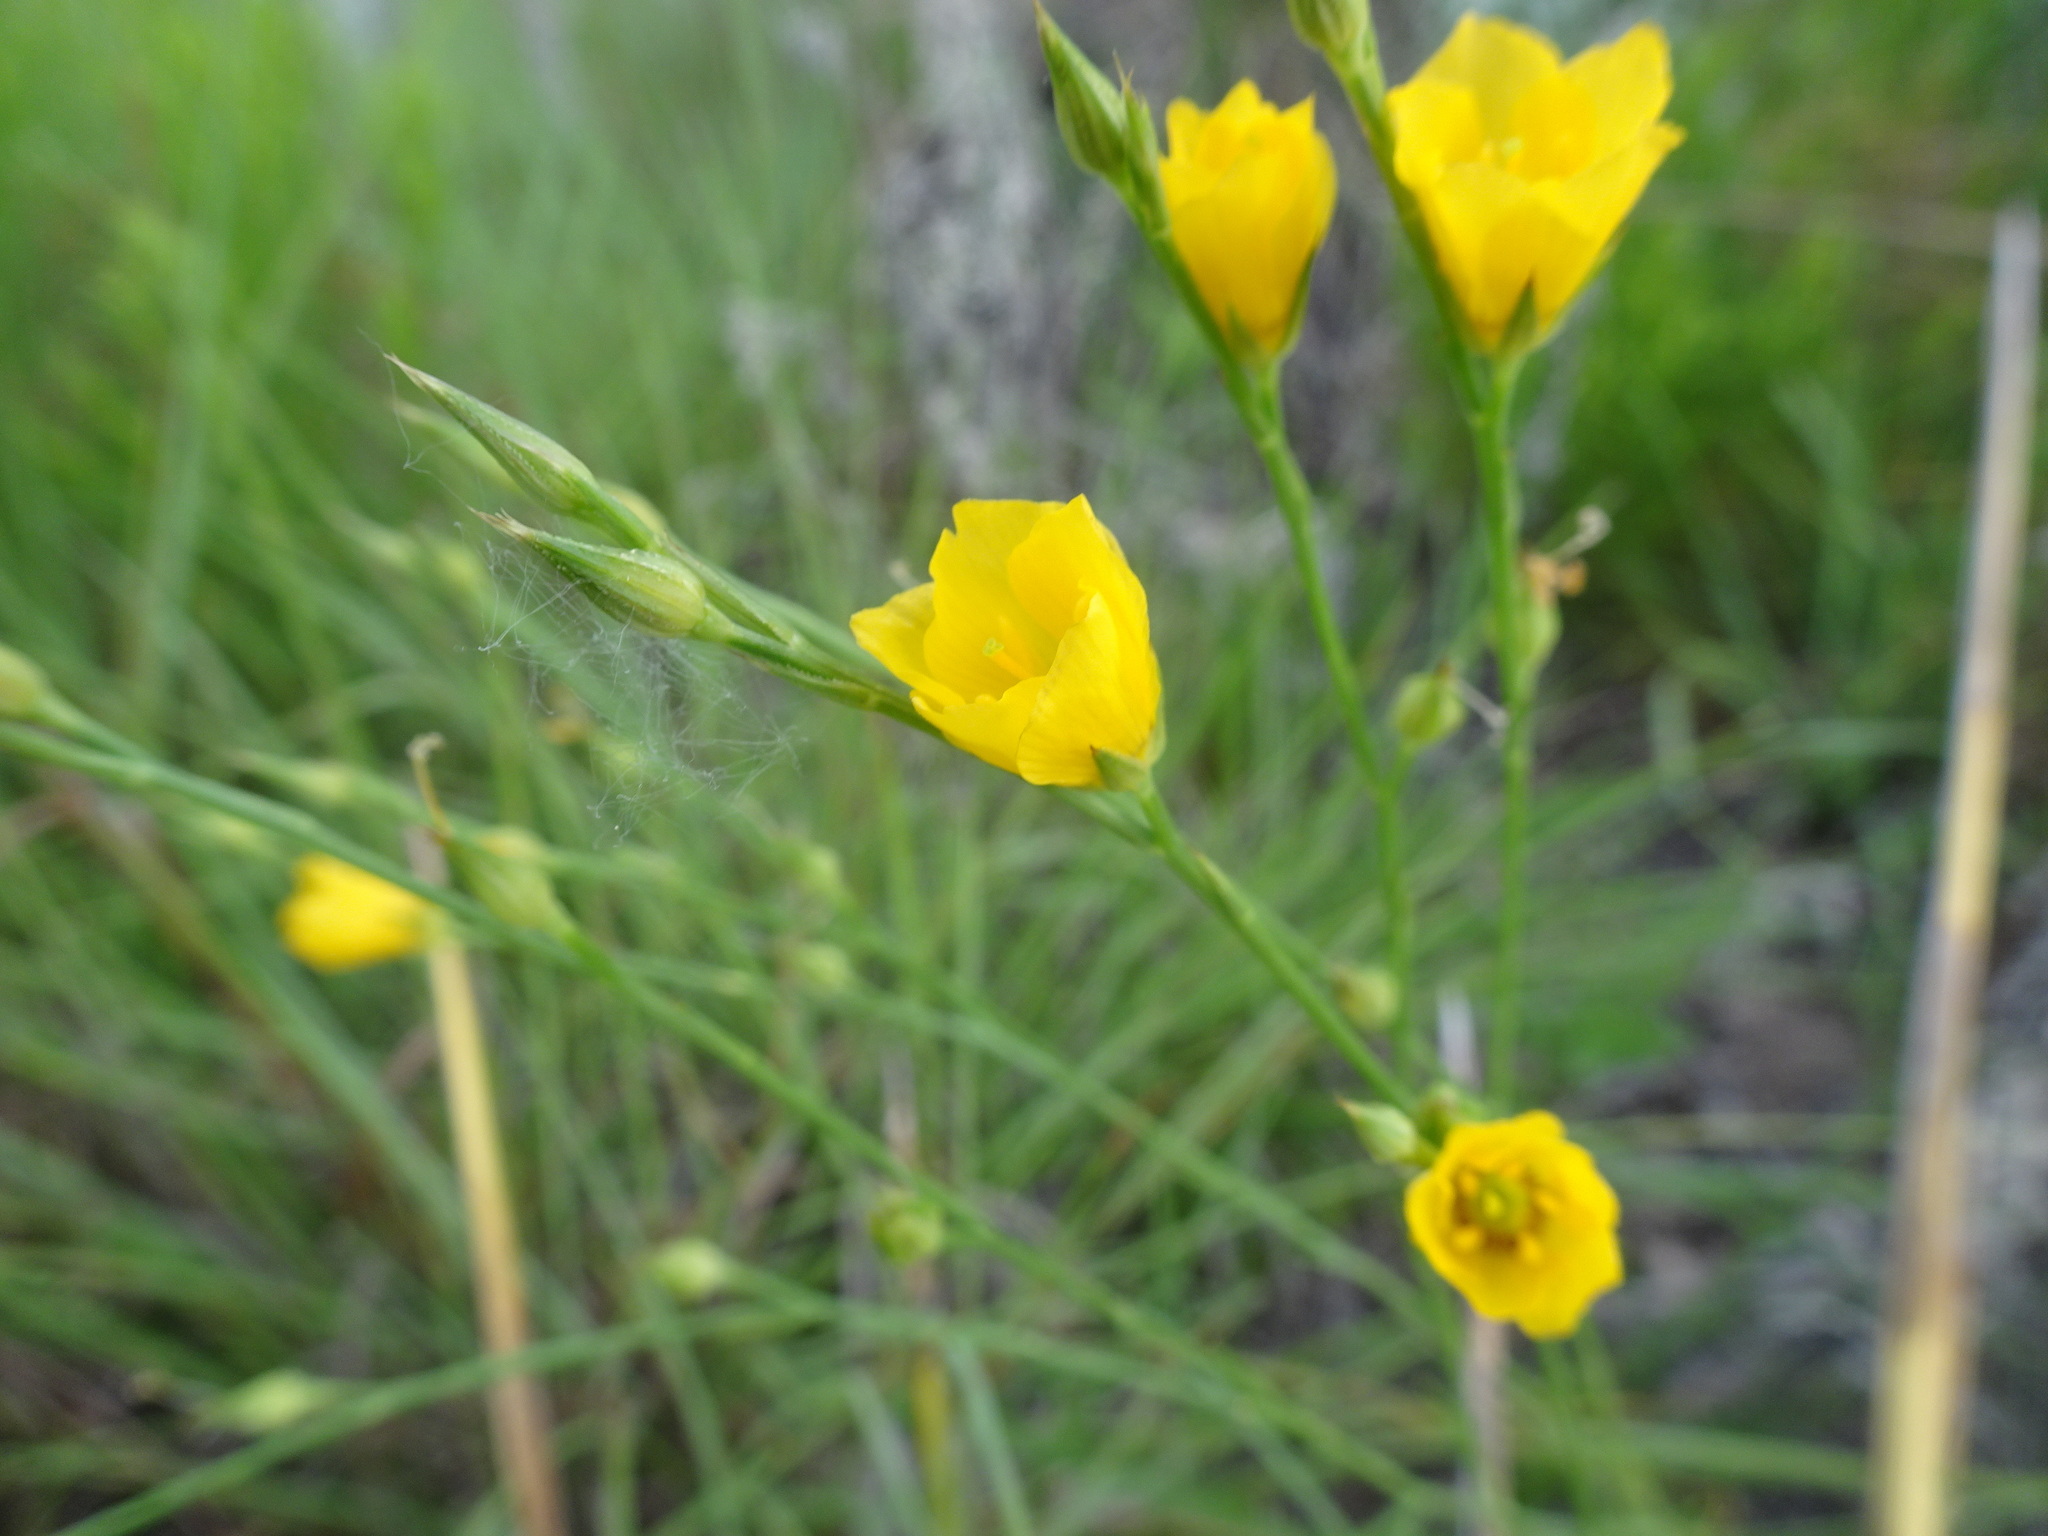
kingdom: Plantae
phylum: Tracheophyta
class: Magnoliopsida
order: Malpighiales
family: Linaceae
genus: Linum
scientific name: Linum rigidum
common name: Stiff-stem flax
